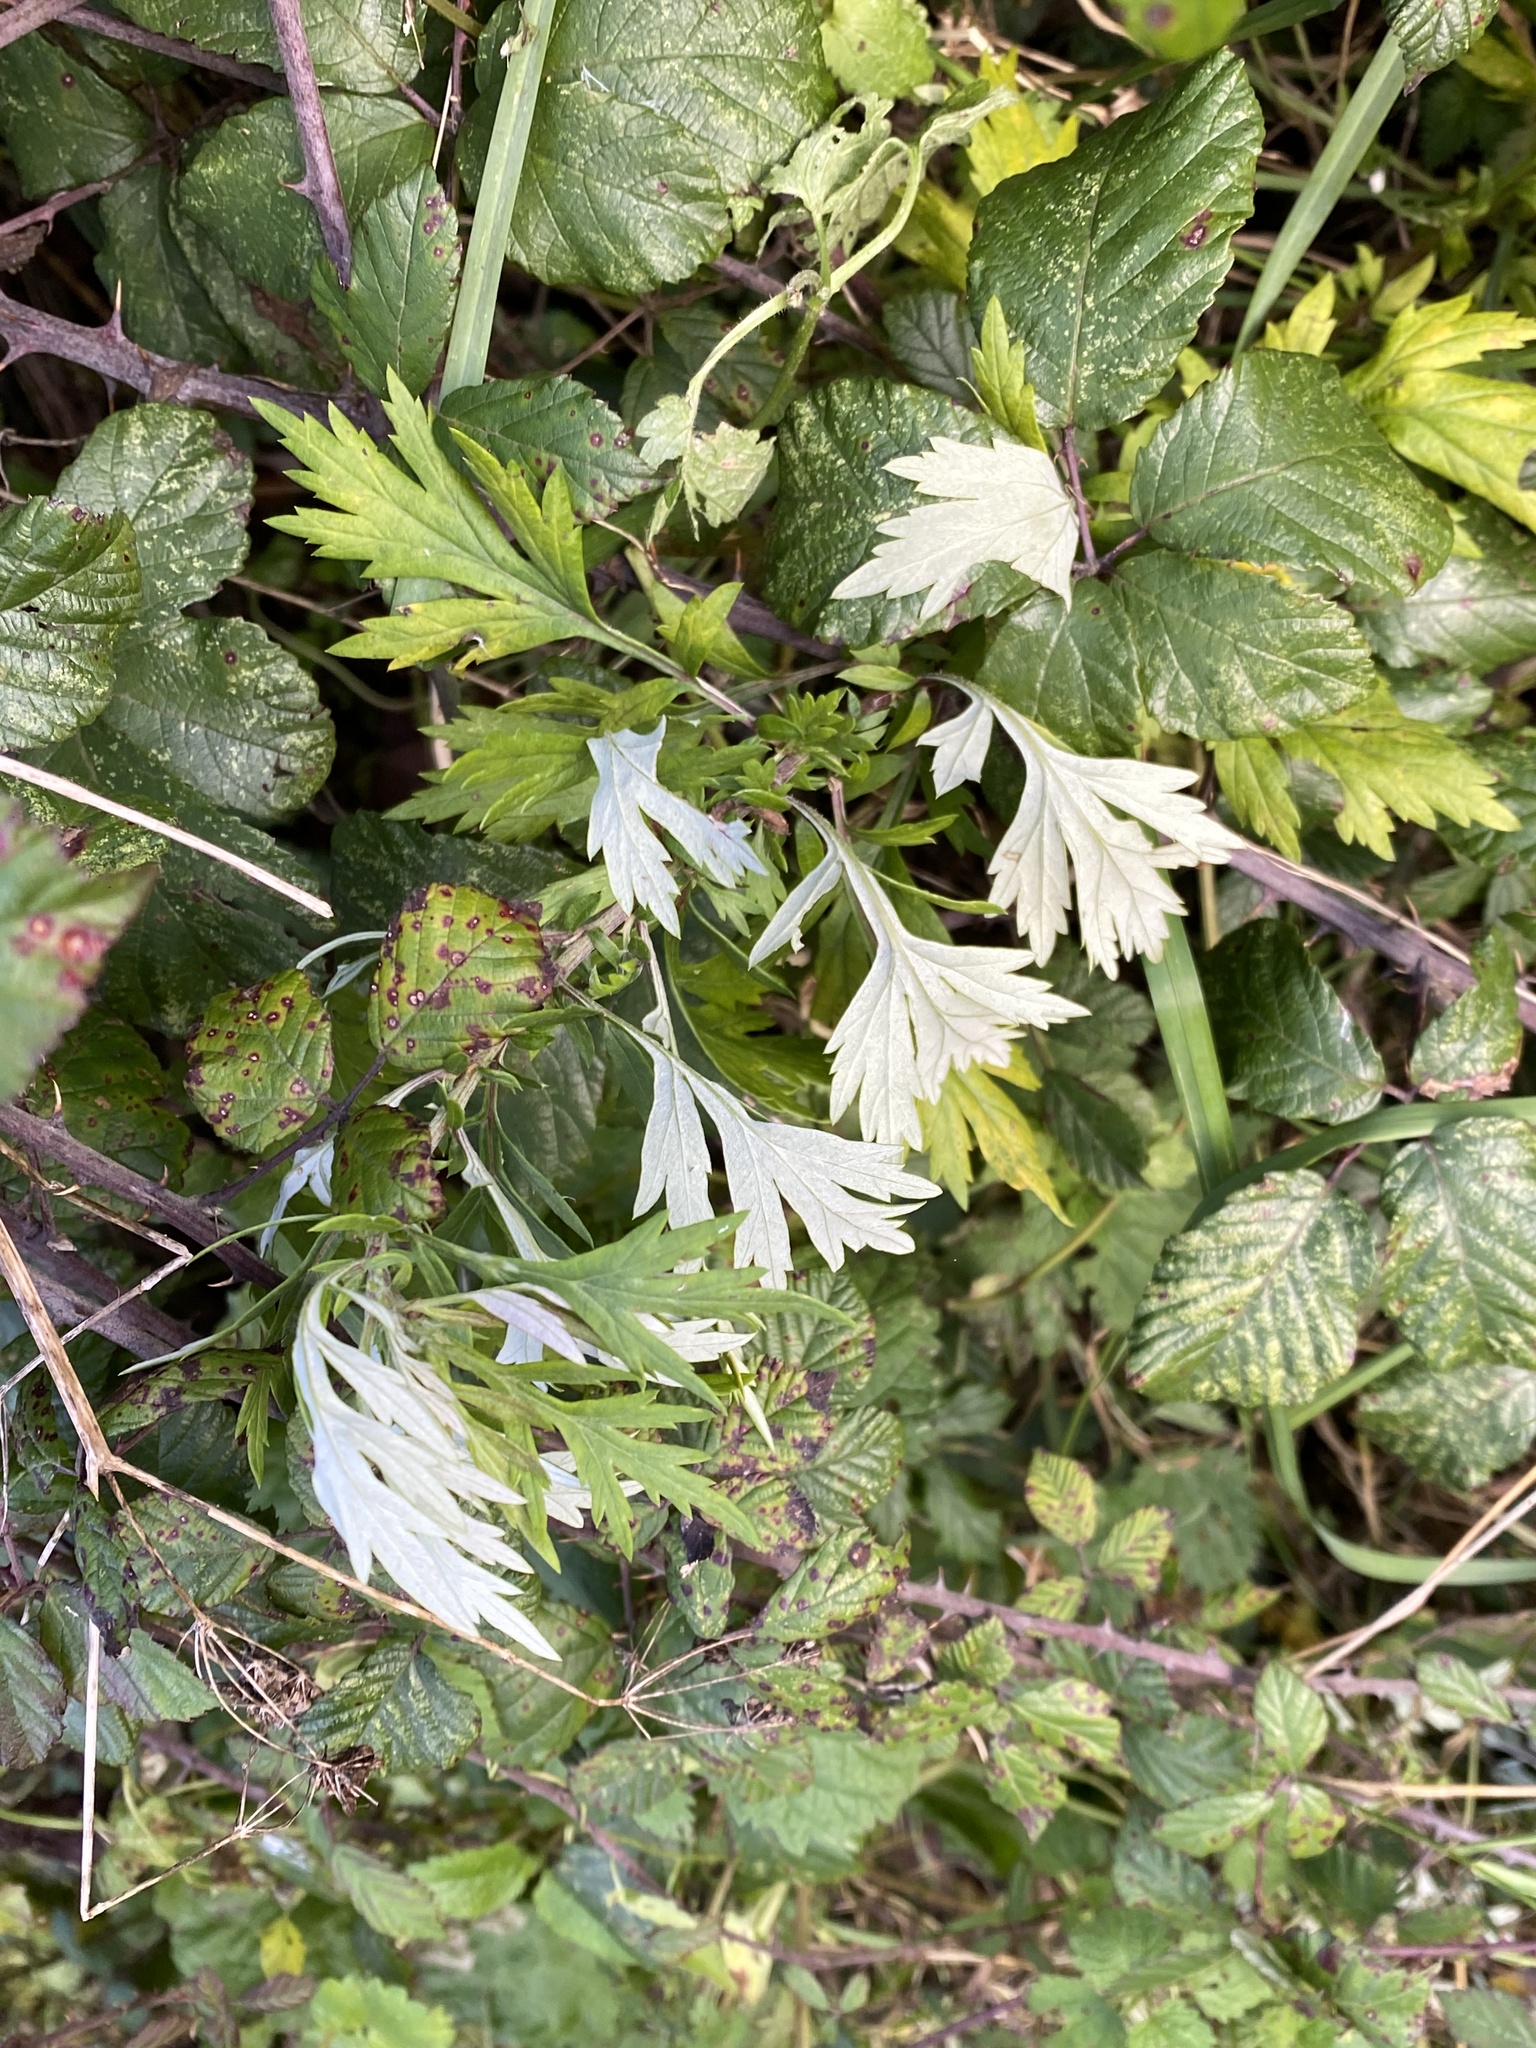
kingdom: Plantae
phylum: Tracheophyta
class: Magnoliopsida
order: Asterales
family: Asteraceae
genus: Artemisia
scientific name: Artemisia vulgaris
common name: Mugwort
